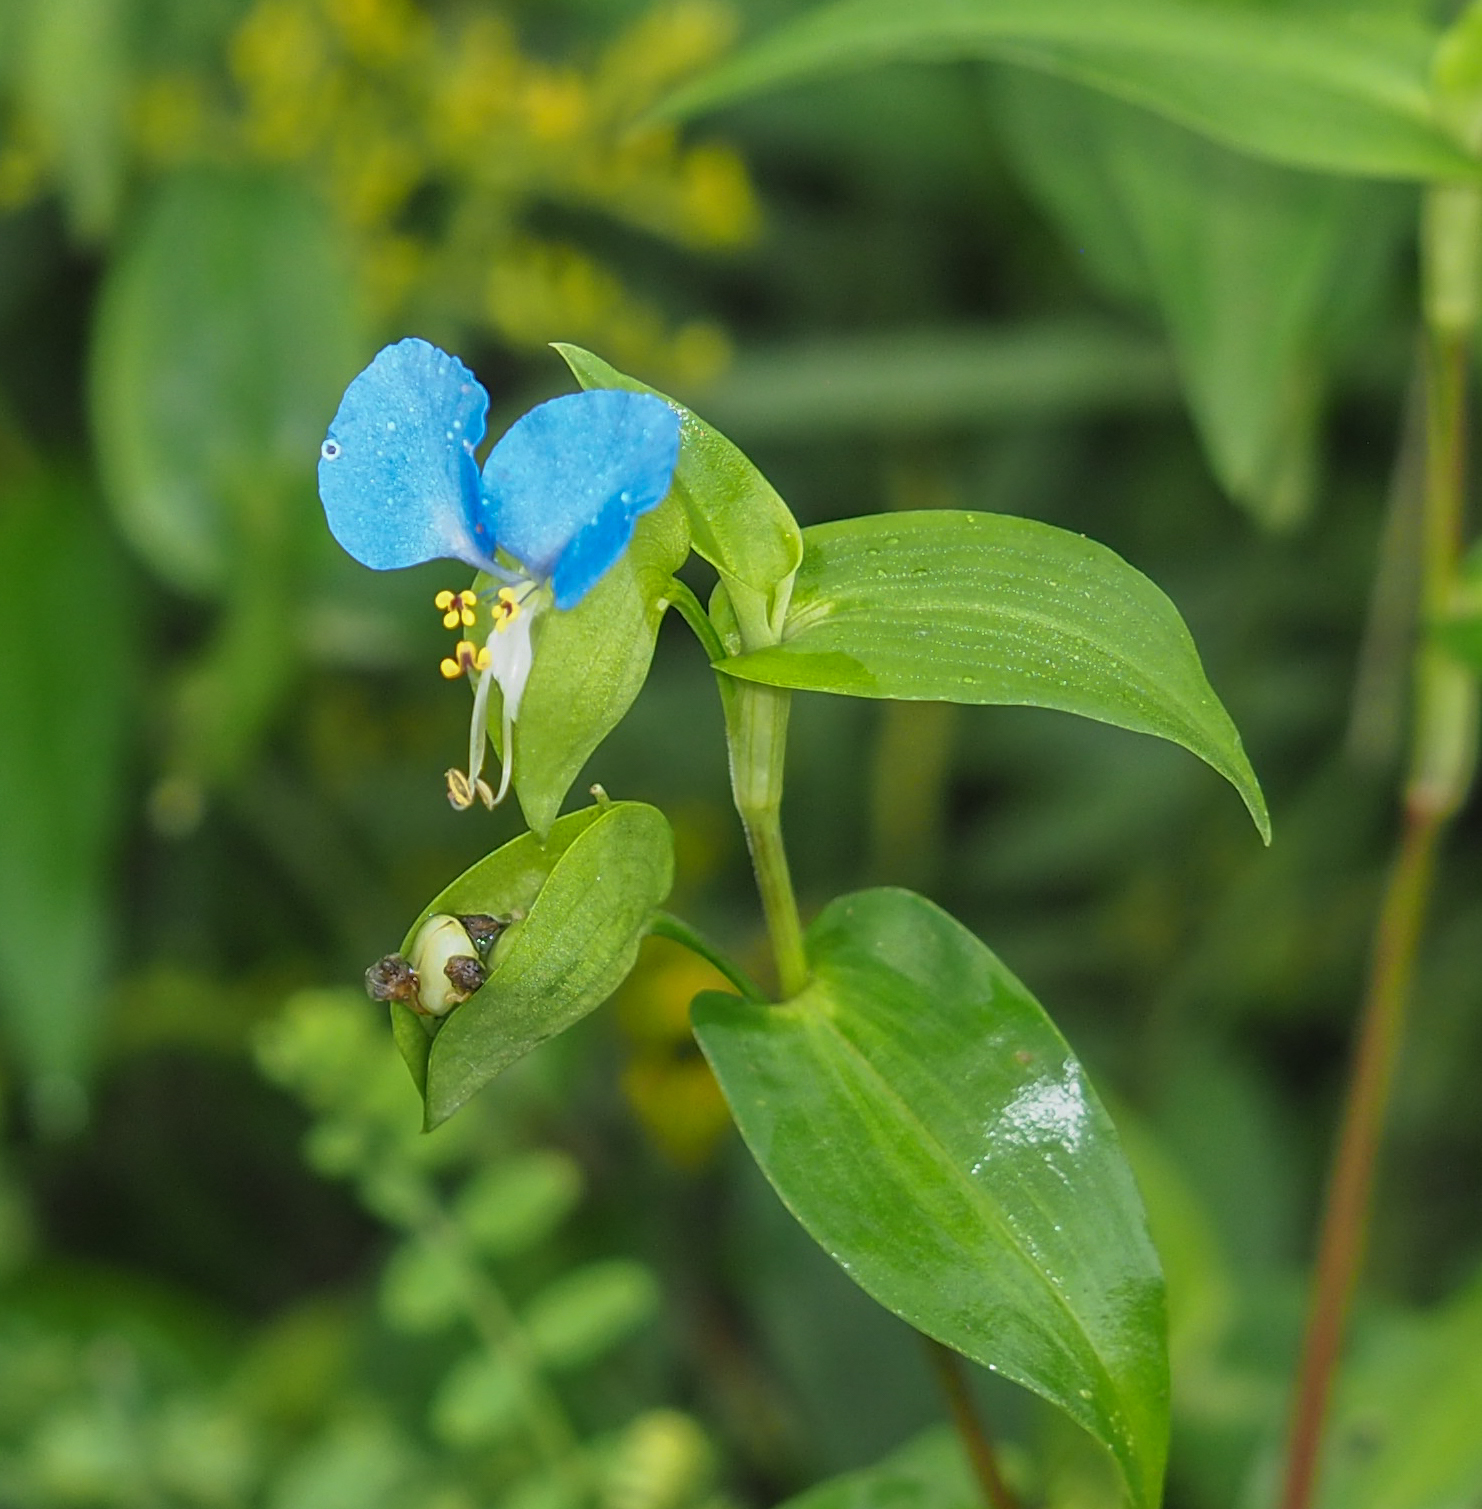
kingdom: Plantae
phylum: Tracheophyta
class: Liliopsida
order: Commelinales
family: Commelinaceae
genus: Commelina
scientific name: Commelina communis
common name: Asiatic dayflower
